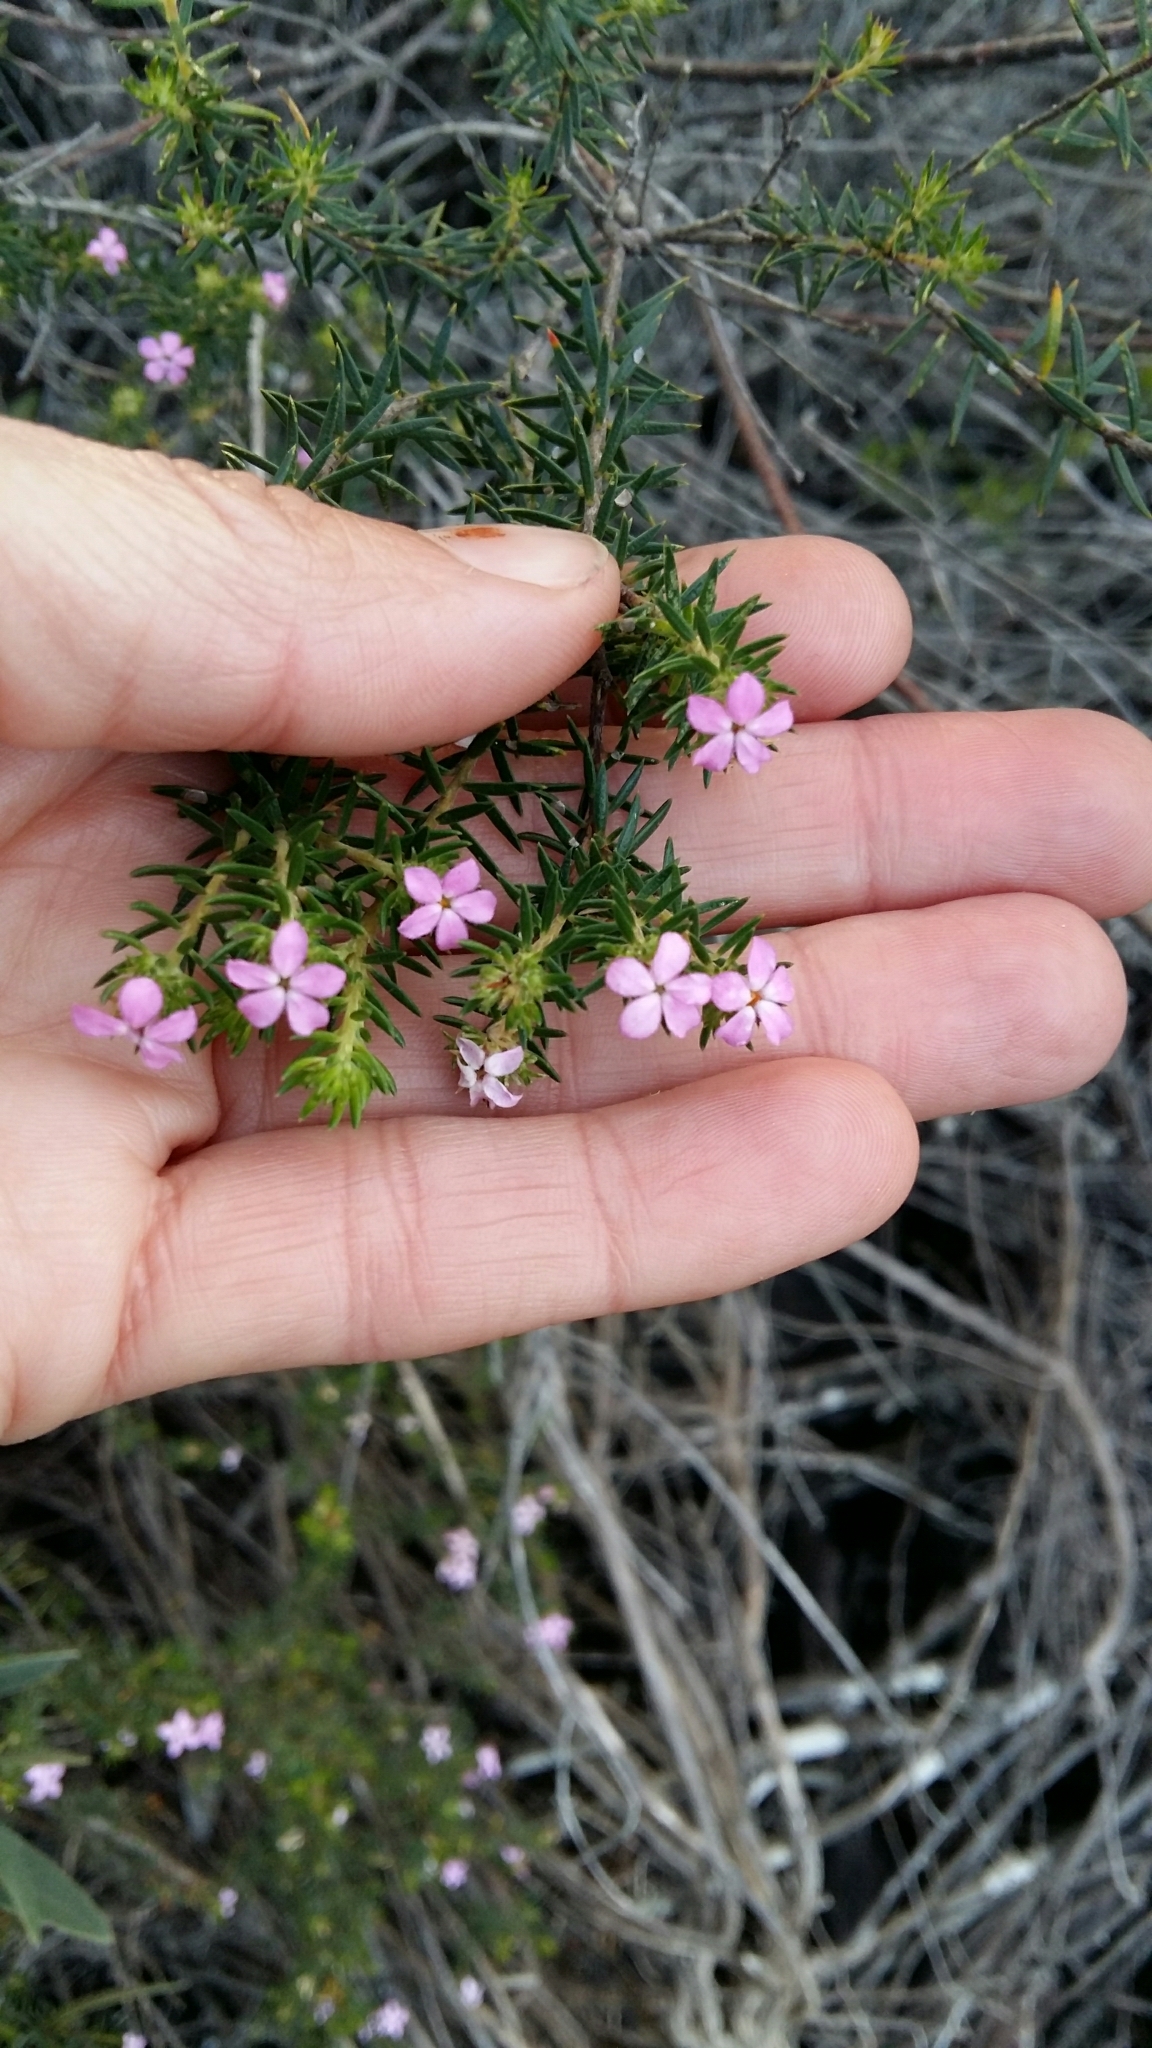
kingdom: Plantae
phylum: Tracheophyta
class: Magnoliopsida
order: Sapindales
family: Rutaceae
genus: Acmadenia
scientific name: Acmadenia alternifolia
